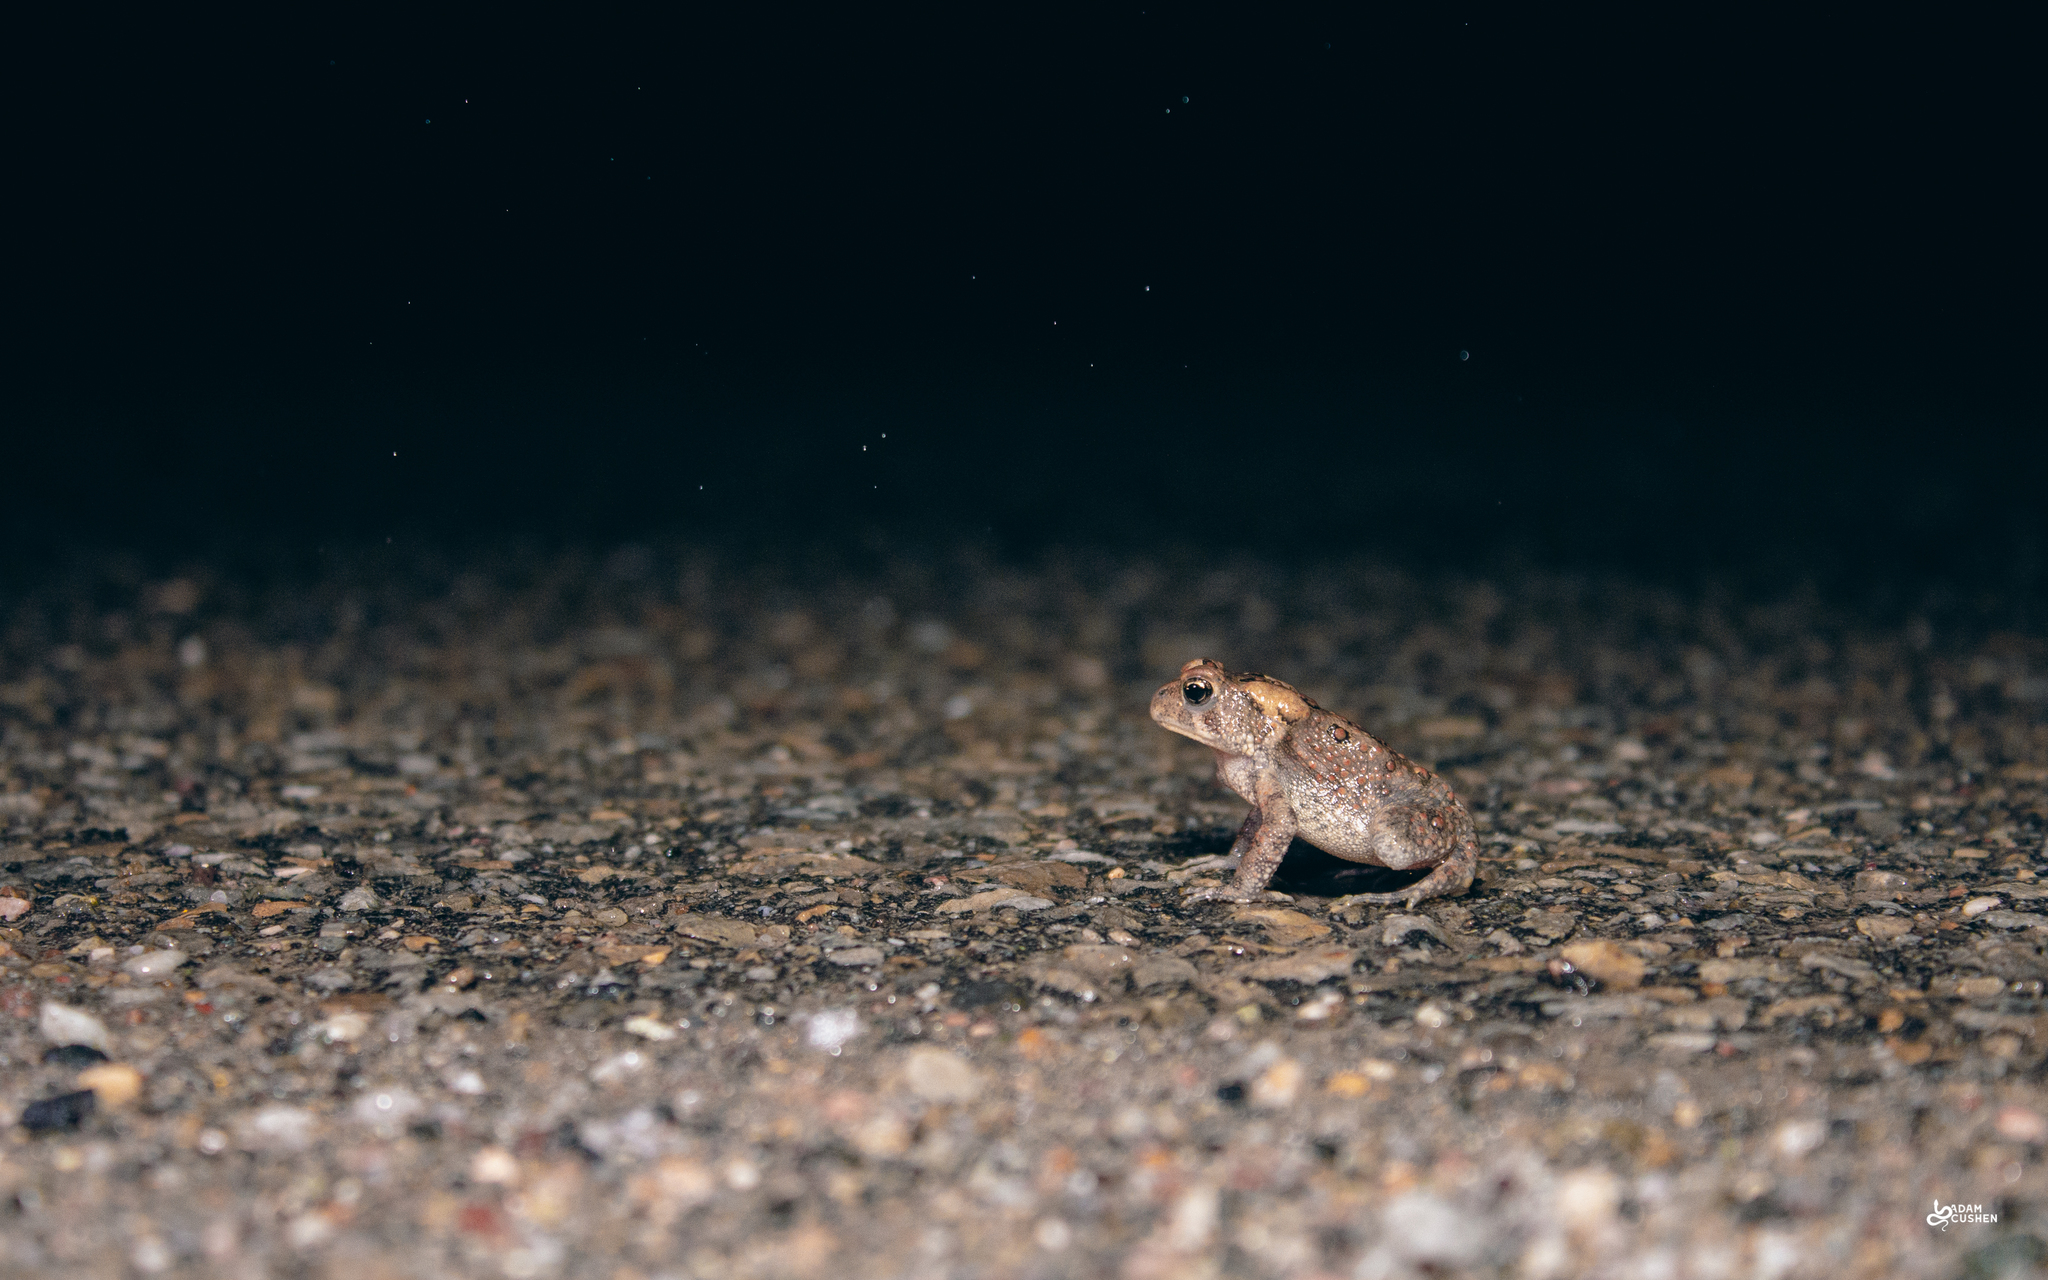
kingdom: Animalia
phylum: Chordata
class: Amphibia
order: Anura
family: Bufonidae
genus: Anaxyrus
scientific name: Anaxyrus americanus
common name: American toad
